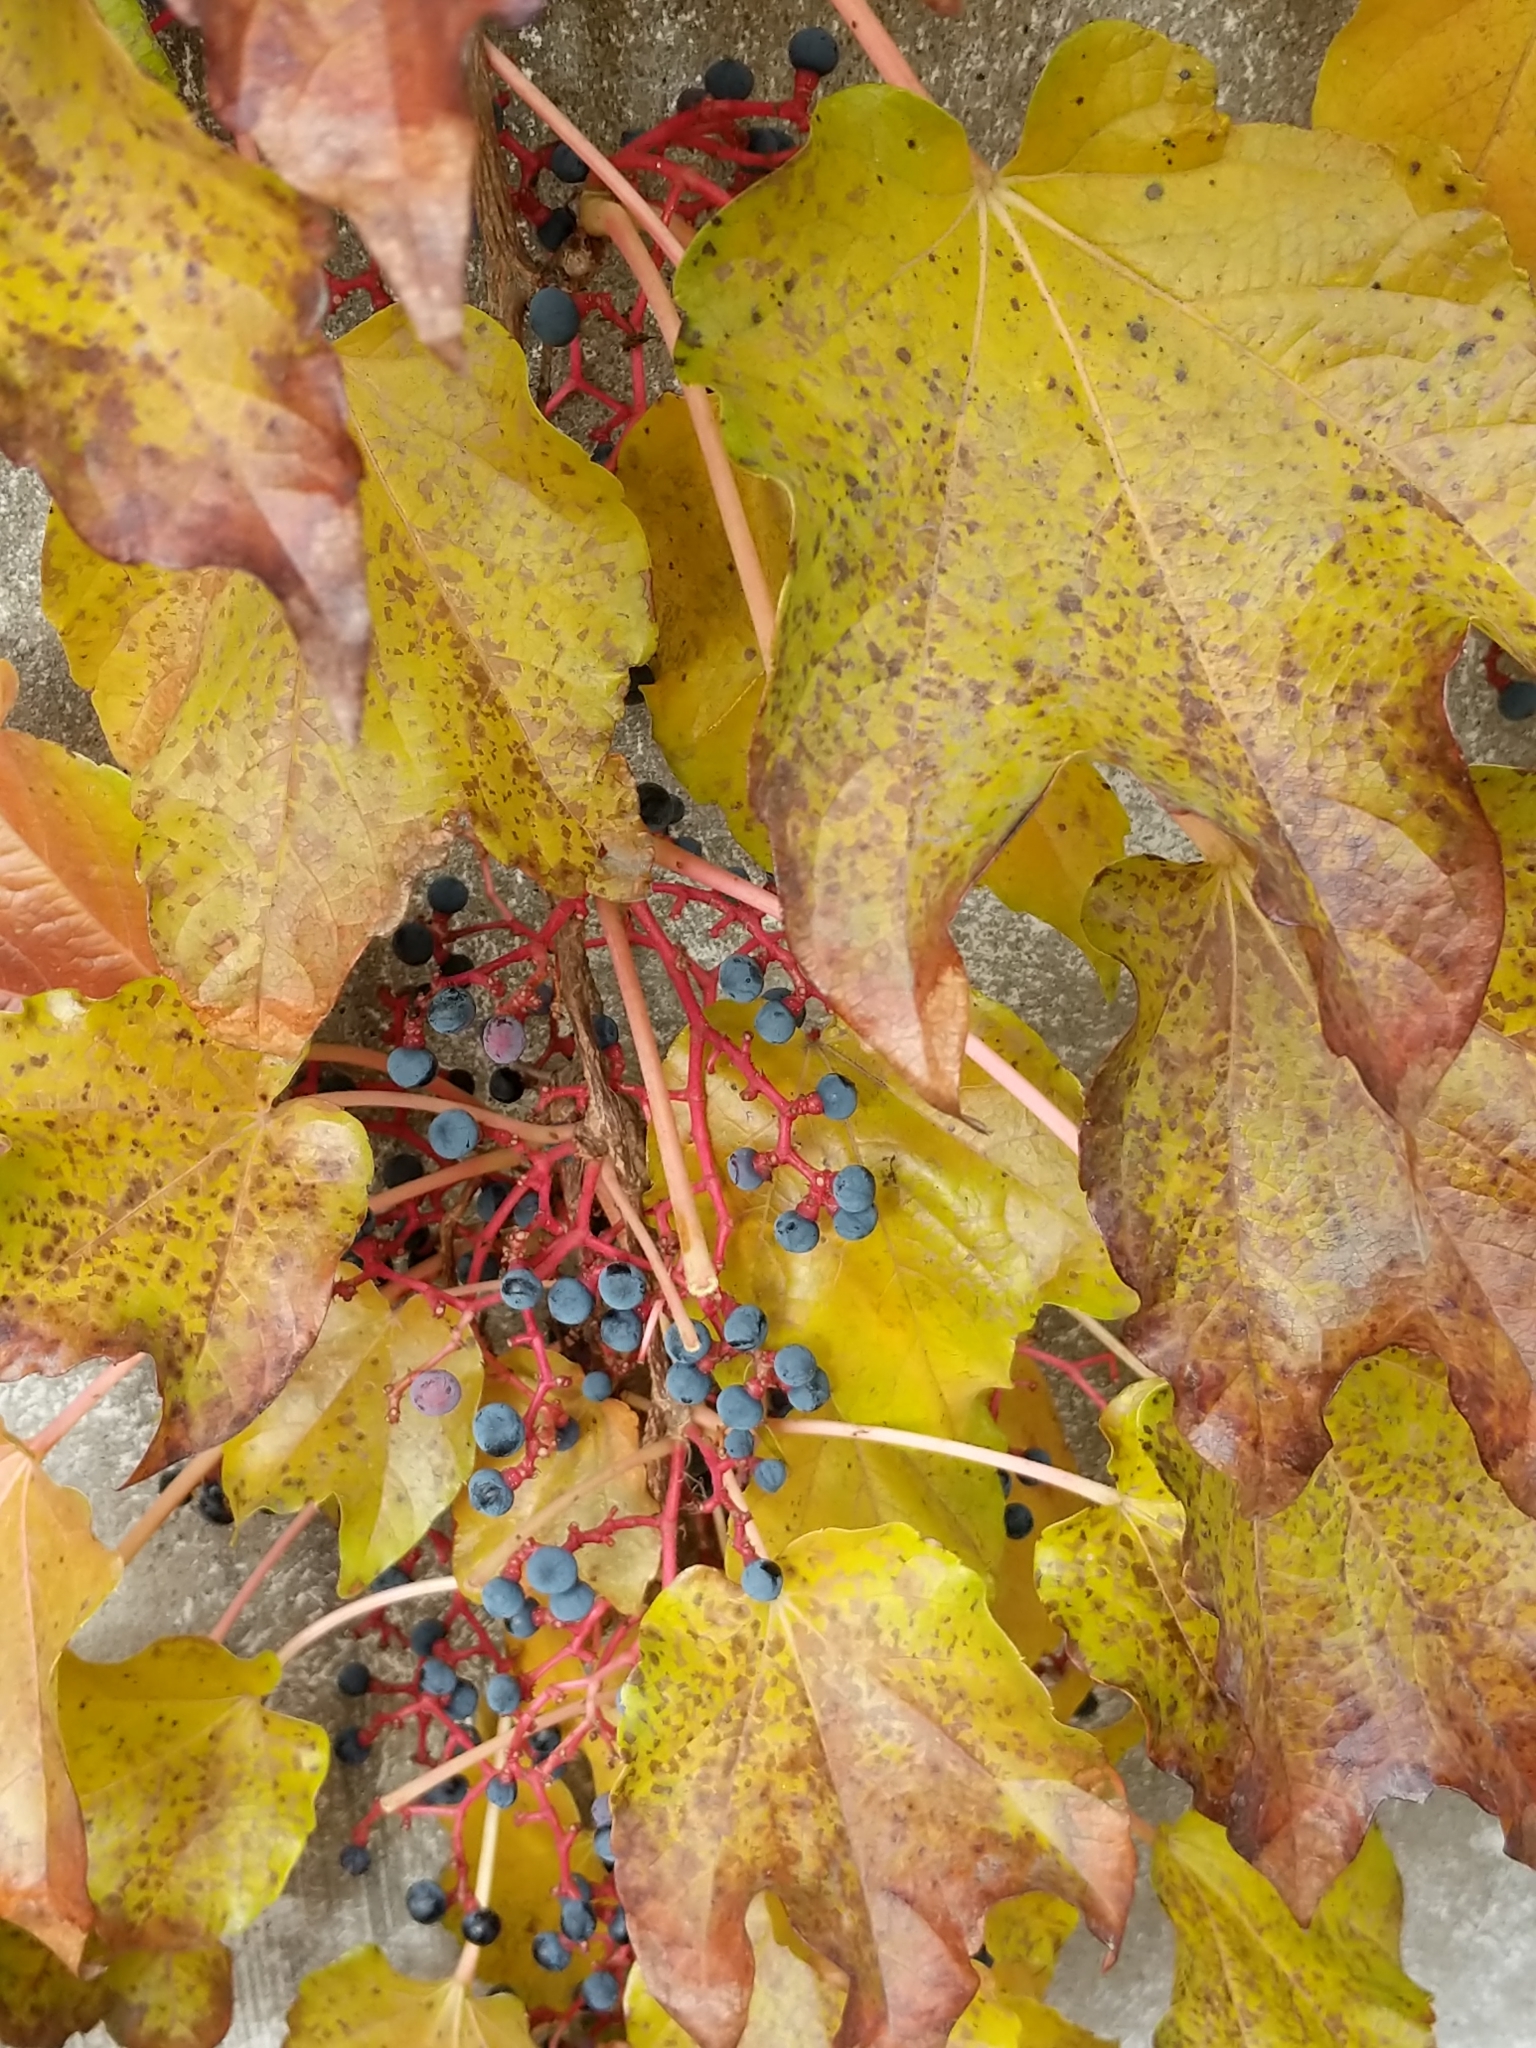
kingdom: Plantae
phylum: Tracheophyta
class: Magnoliopsida
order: Vitales
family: Vitaceae
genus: Parthenocissus
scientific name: Parthenocissus tricuspidata
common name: Boston ivy
